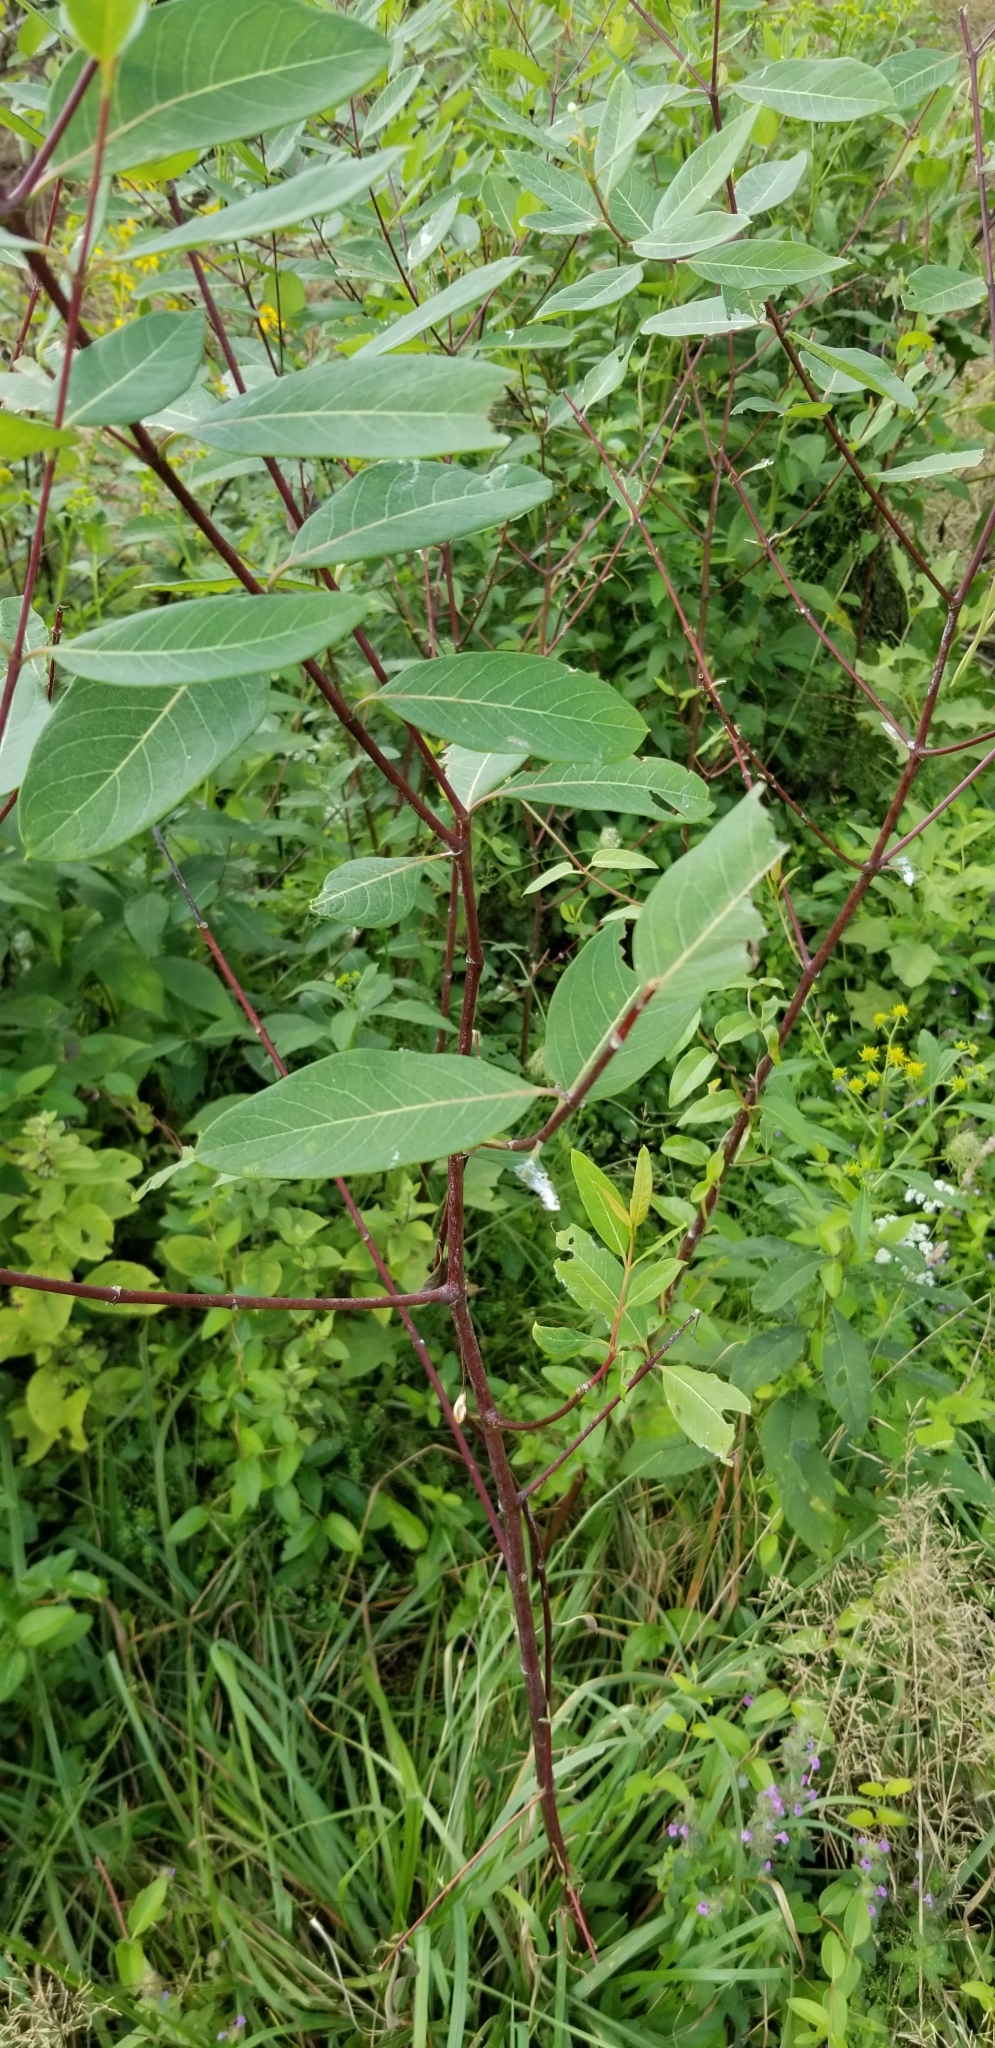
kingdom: Plantae
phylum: Tracheophyta
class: Magnoliopsida
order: Gentianales
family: Apocynaceae
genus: Apocynum
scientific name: Apocynum cannabinum
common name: Hemp dogbane
